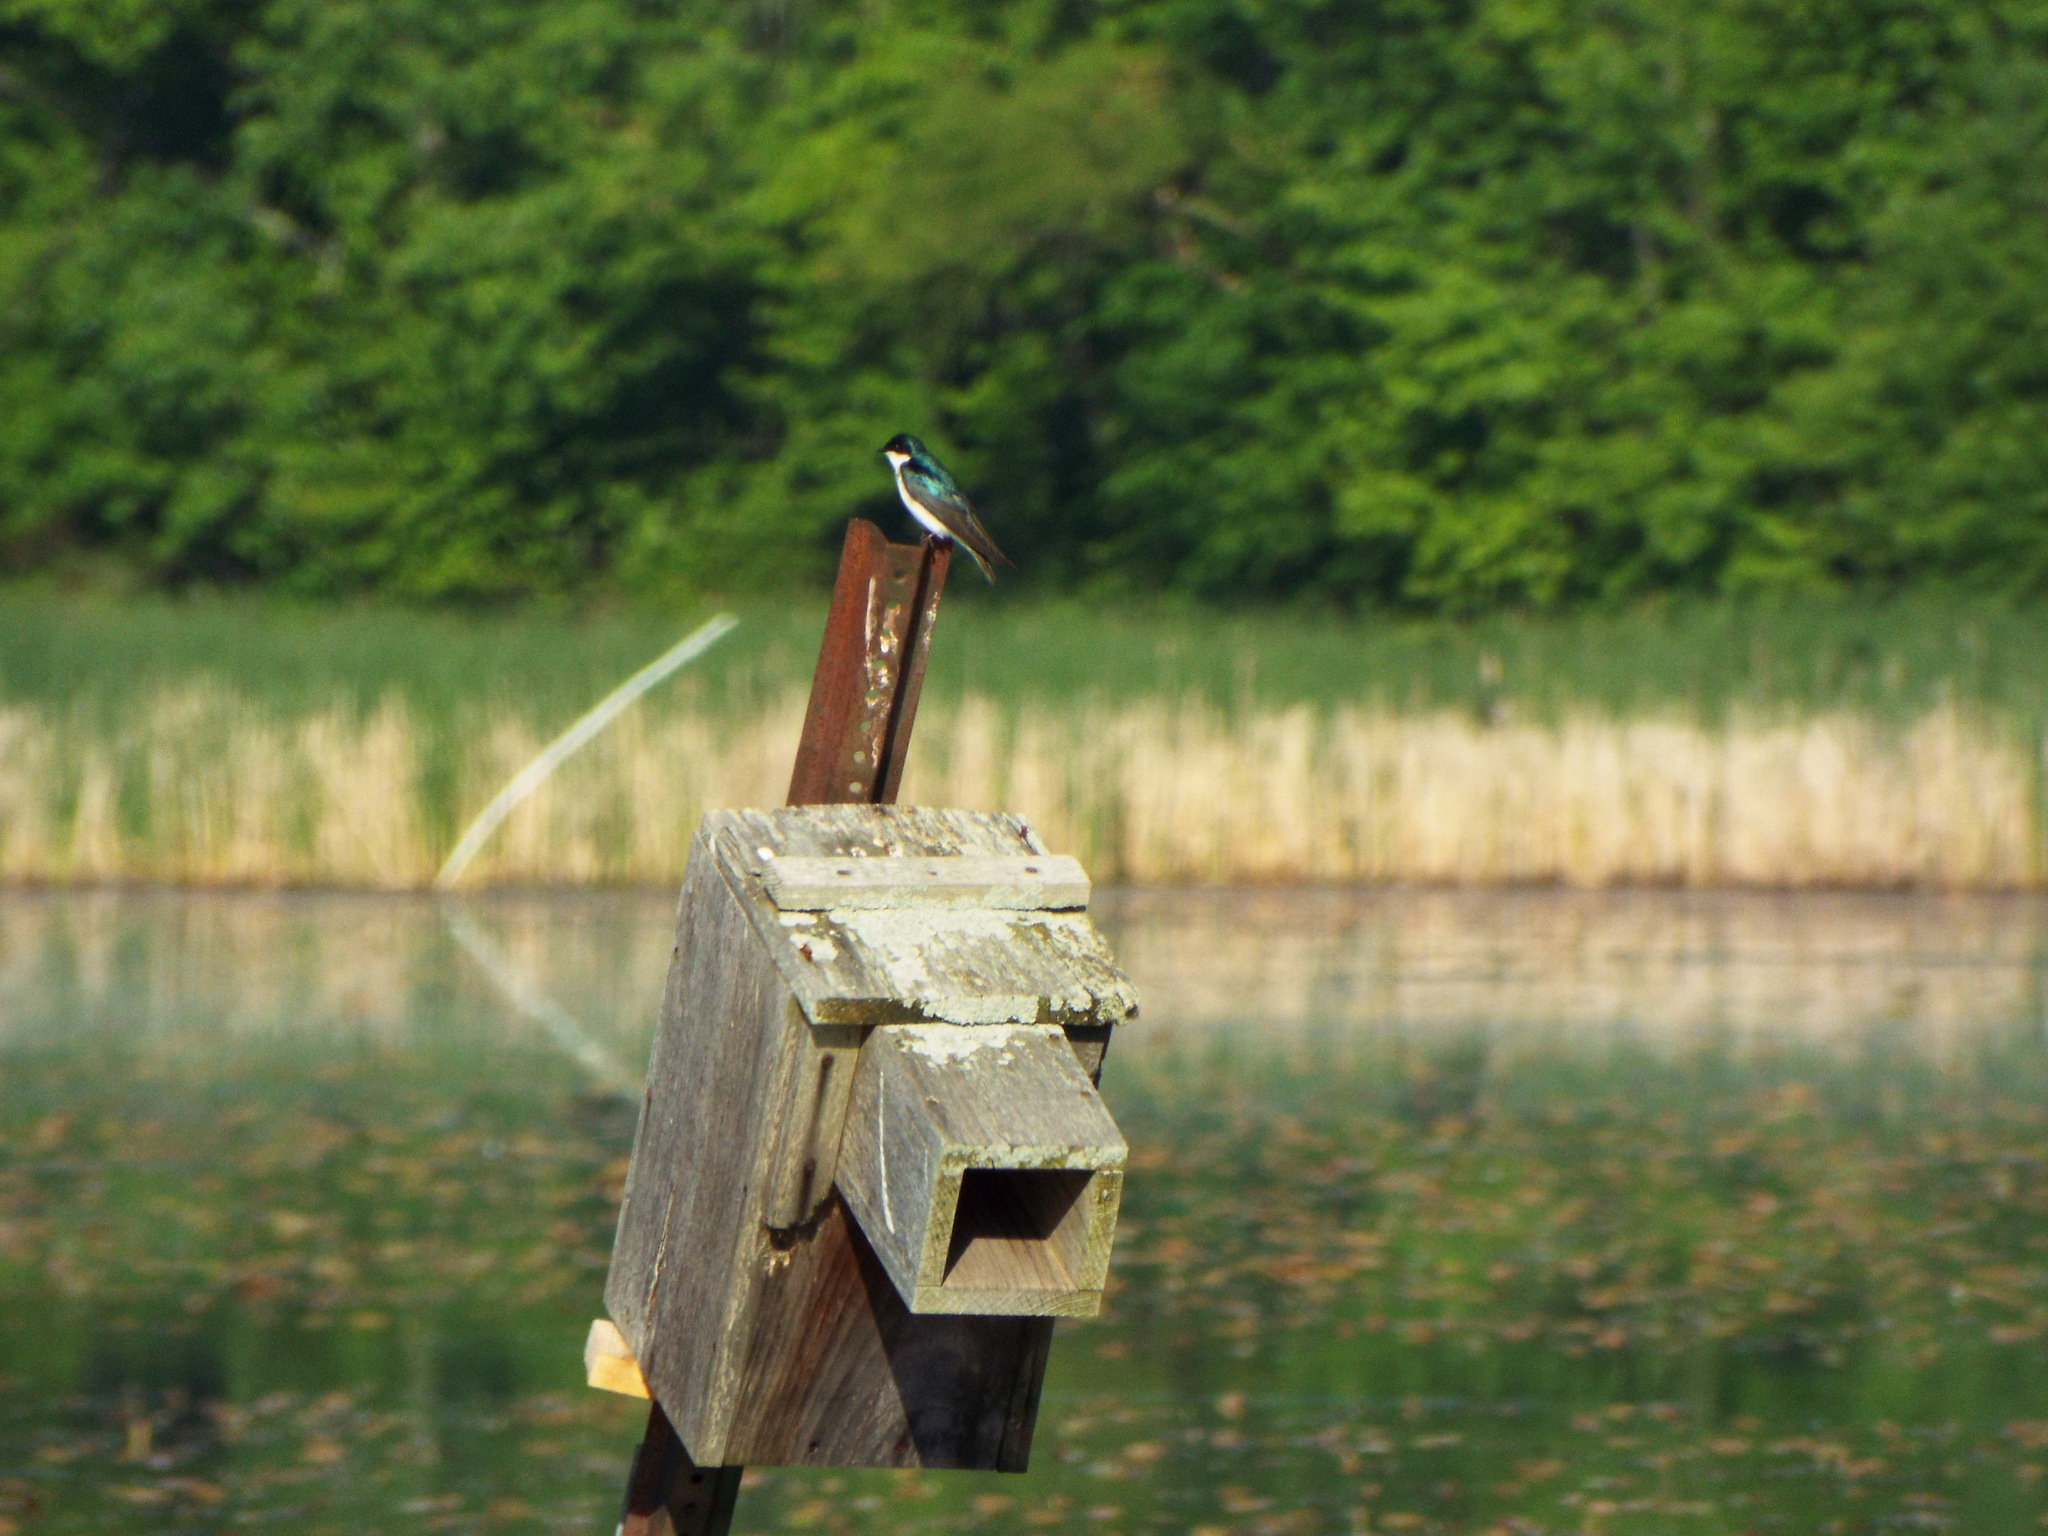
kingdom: Animalia
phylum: Chordata
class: Aves
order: Passeriformes
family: Hirundinidae
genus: Tachycineta
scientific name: Tachycineta bicolor
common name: Tree swallow
